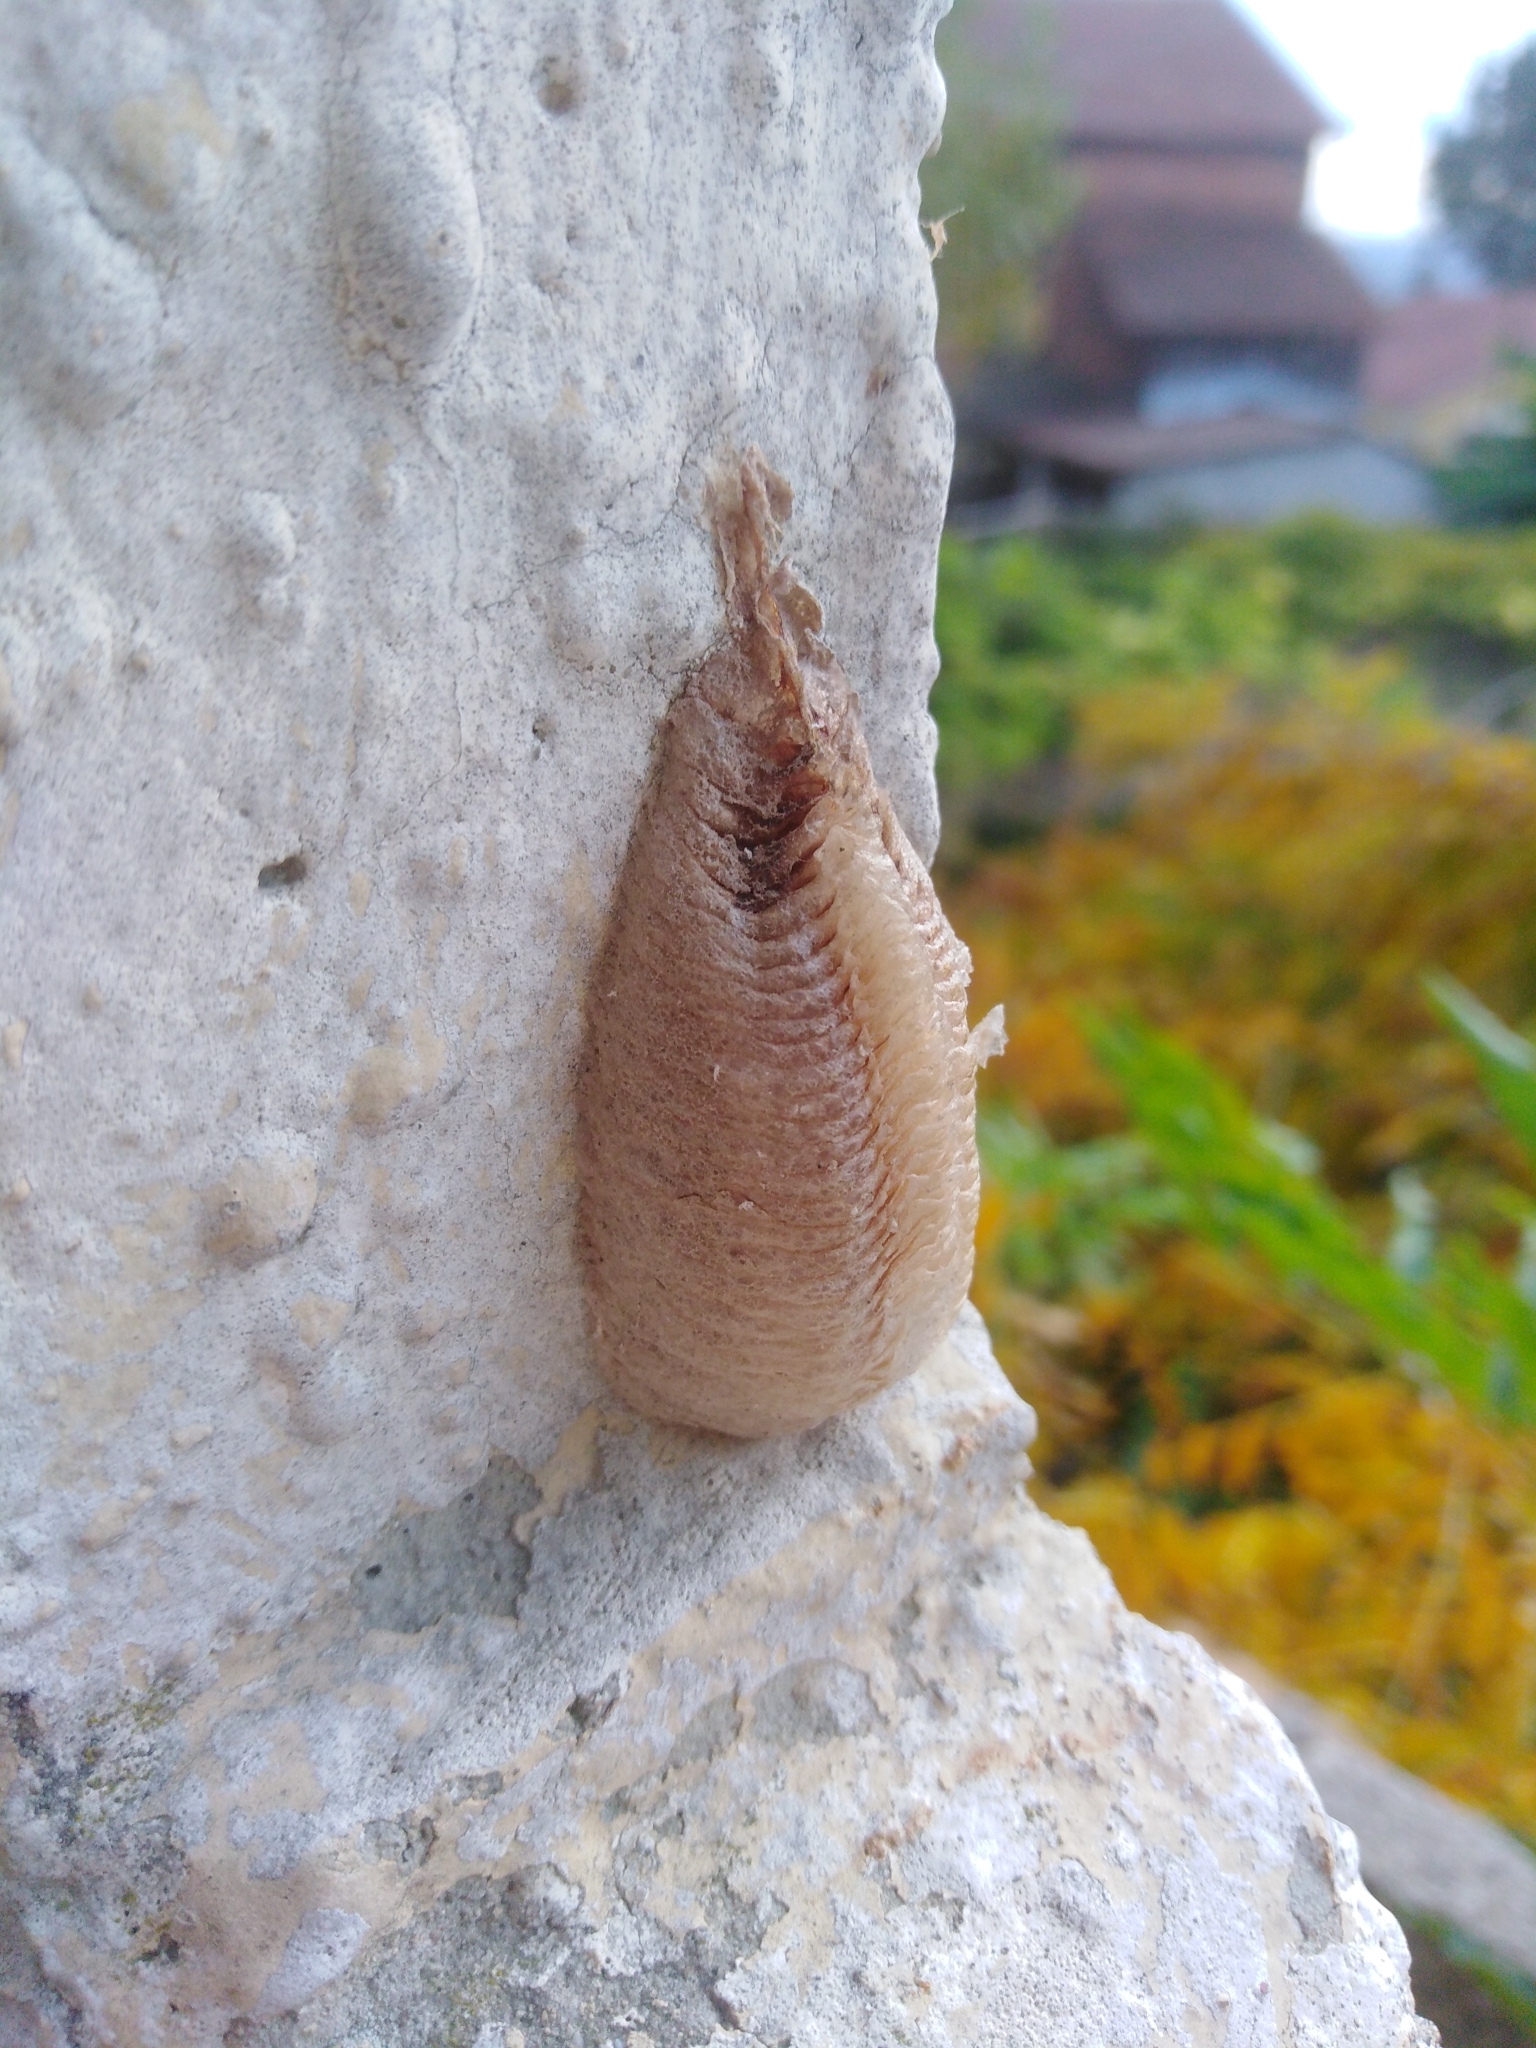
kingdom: Animalia
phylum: Arthropoda
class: Insecta
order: Mantodea
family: Mantidae
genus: Mantis
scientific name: Mantis religiosa
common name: Praying mantis
